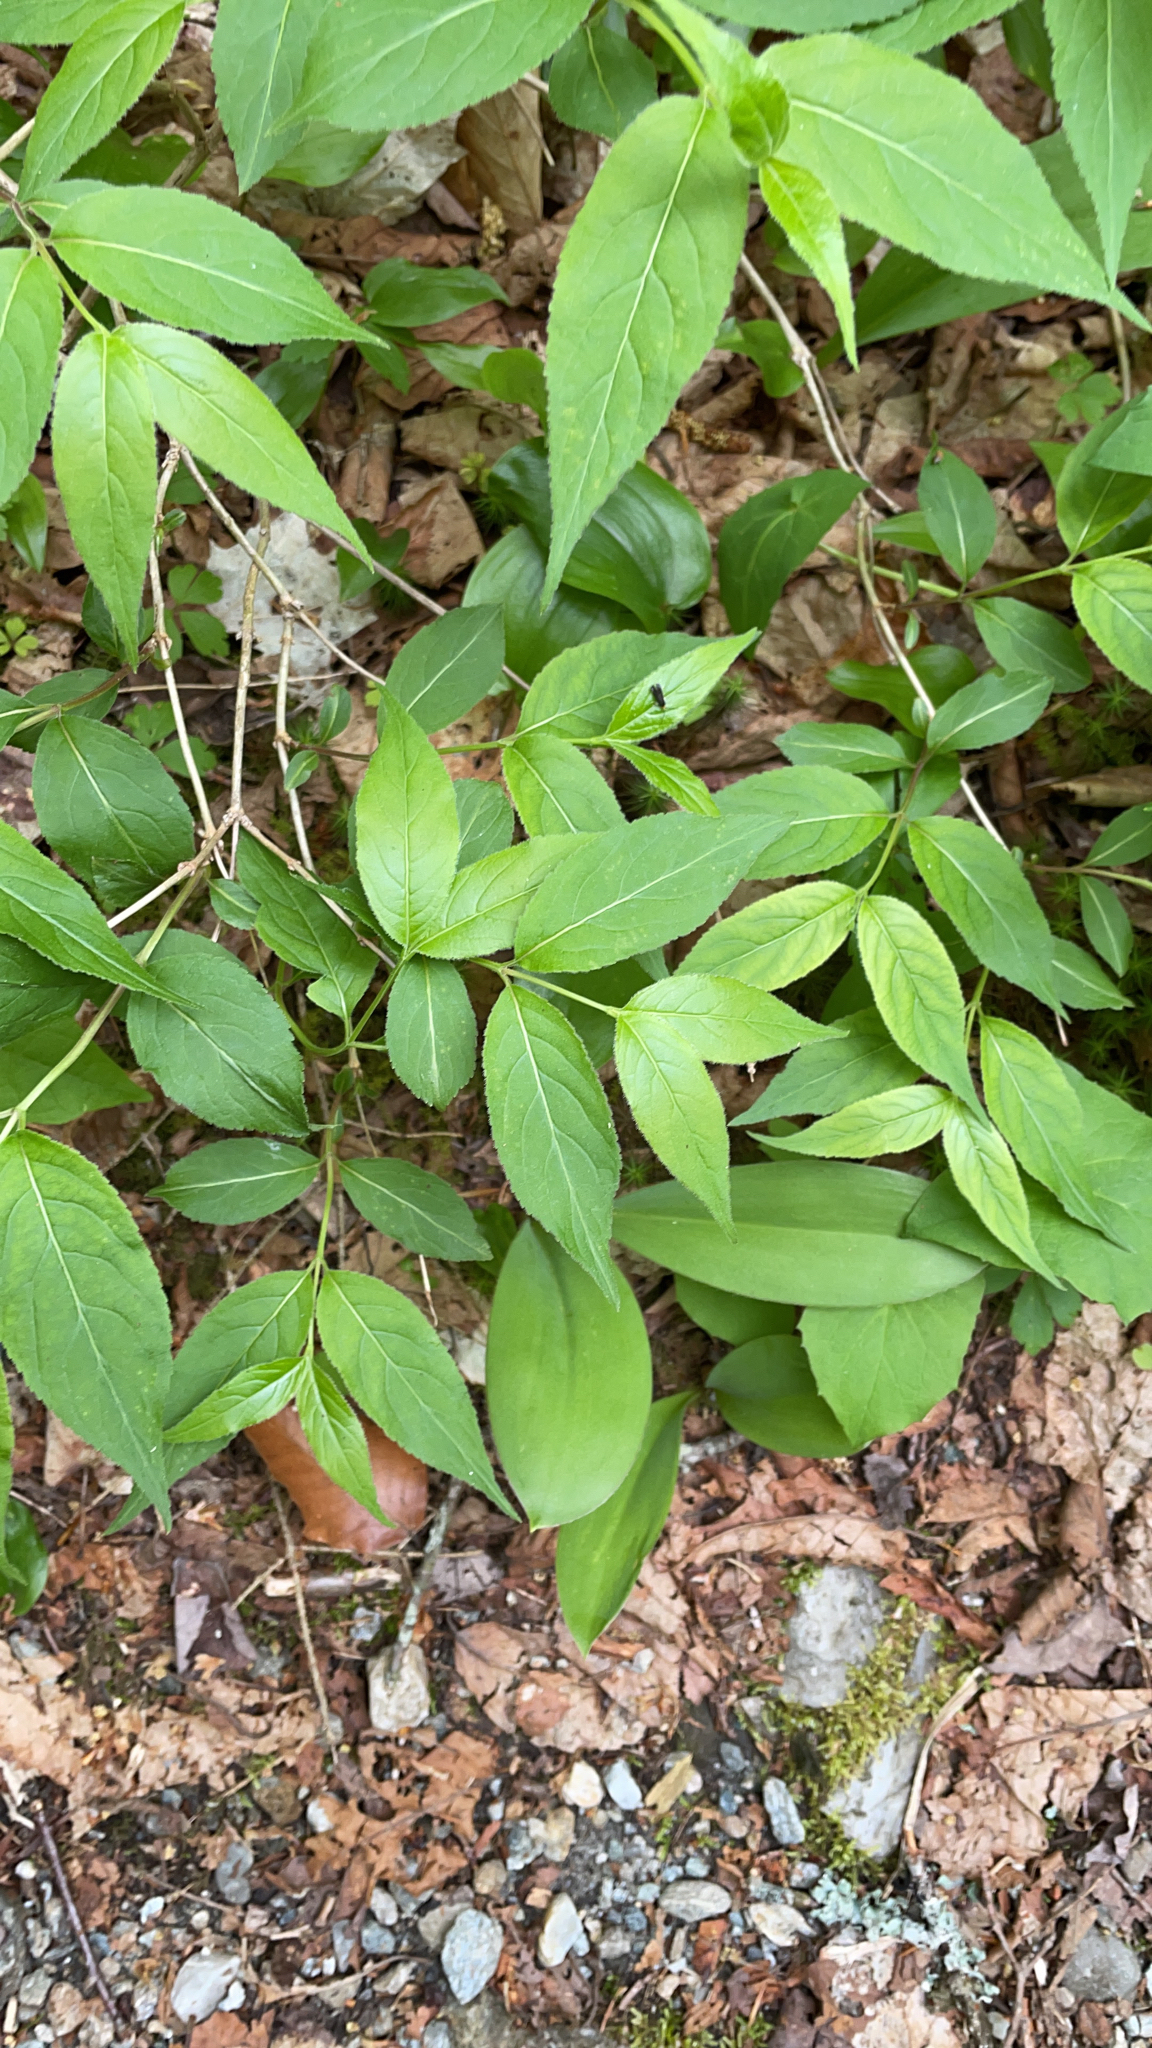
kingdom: Plantae
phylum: Tracheophyta
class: Magnoliopsida
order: Dipsacales
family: Caprifoliaceae
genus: Diervilla
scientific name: Diervilla lonicera
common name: Bush-honeysuckle
